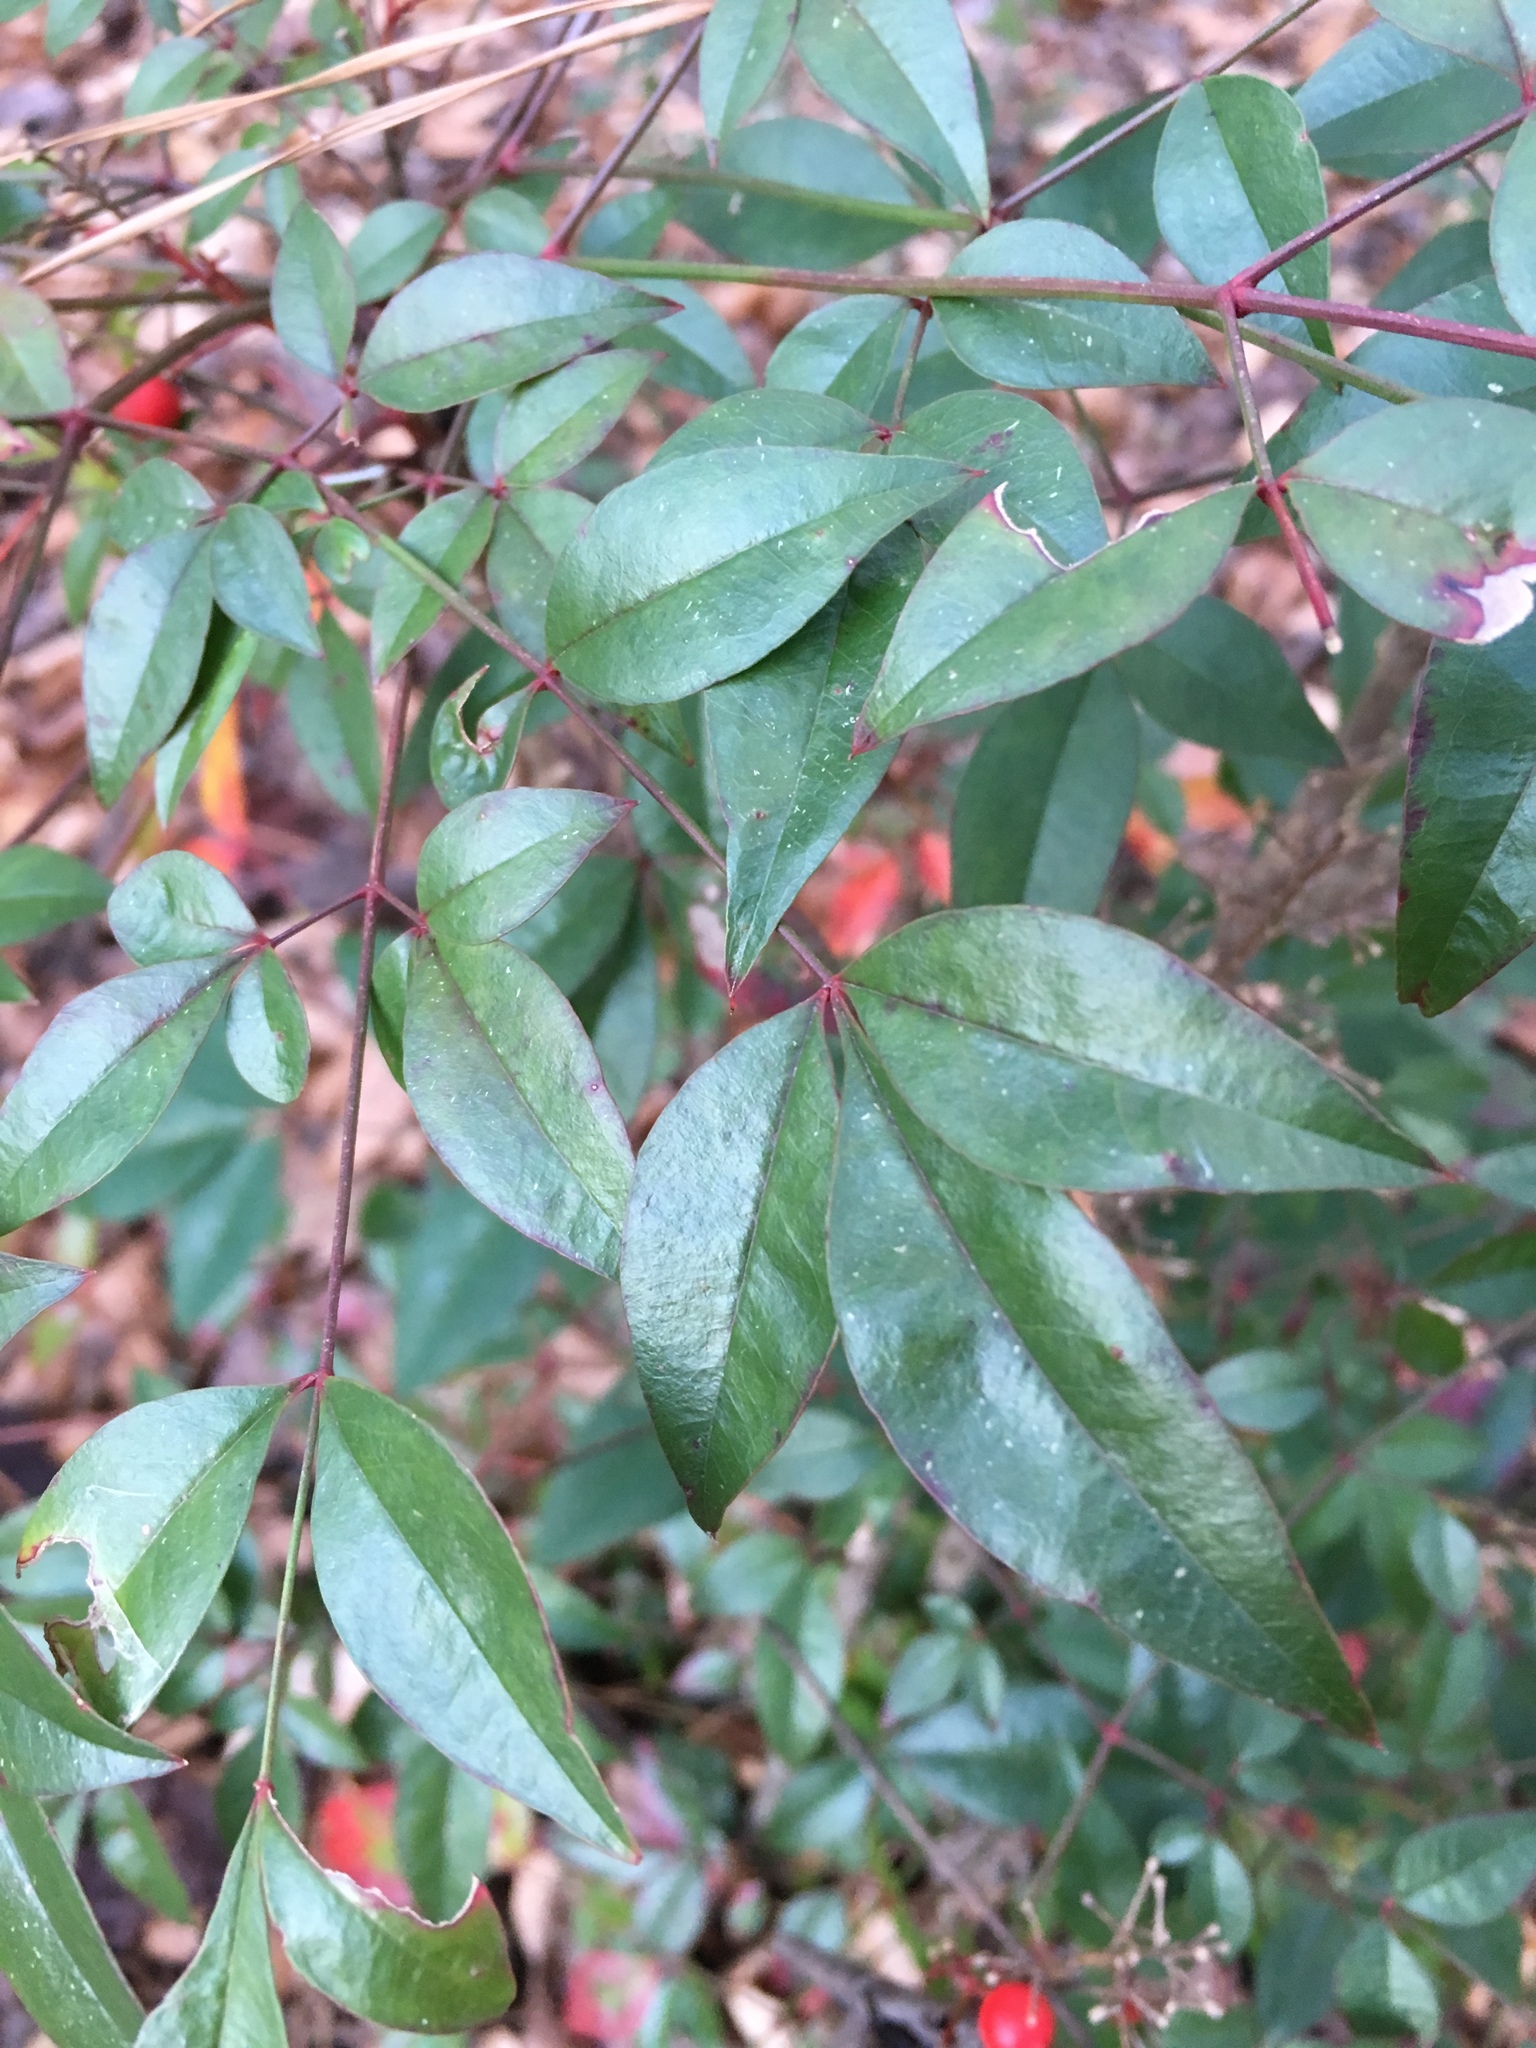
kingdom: Plantae
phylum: Tracheophyta
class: Magnoliopsida
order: Ranunculales
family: Berberidaceae
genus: Nandina
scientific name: Nandina domestica
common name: Sacred bamboo
